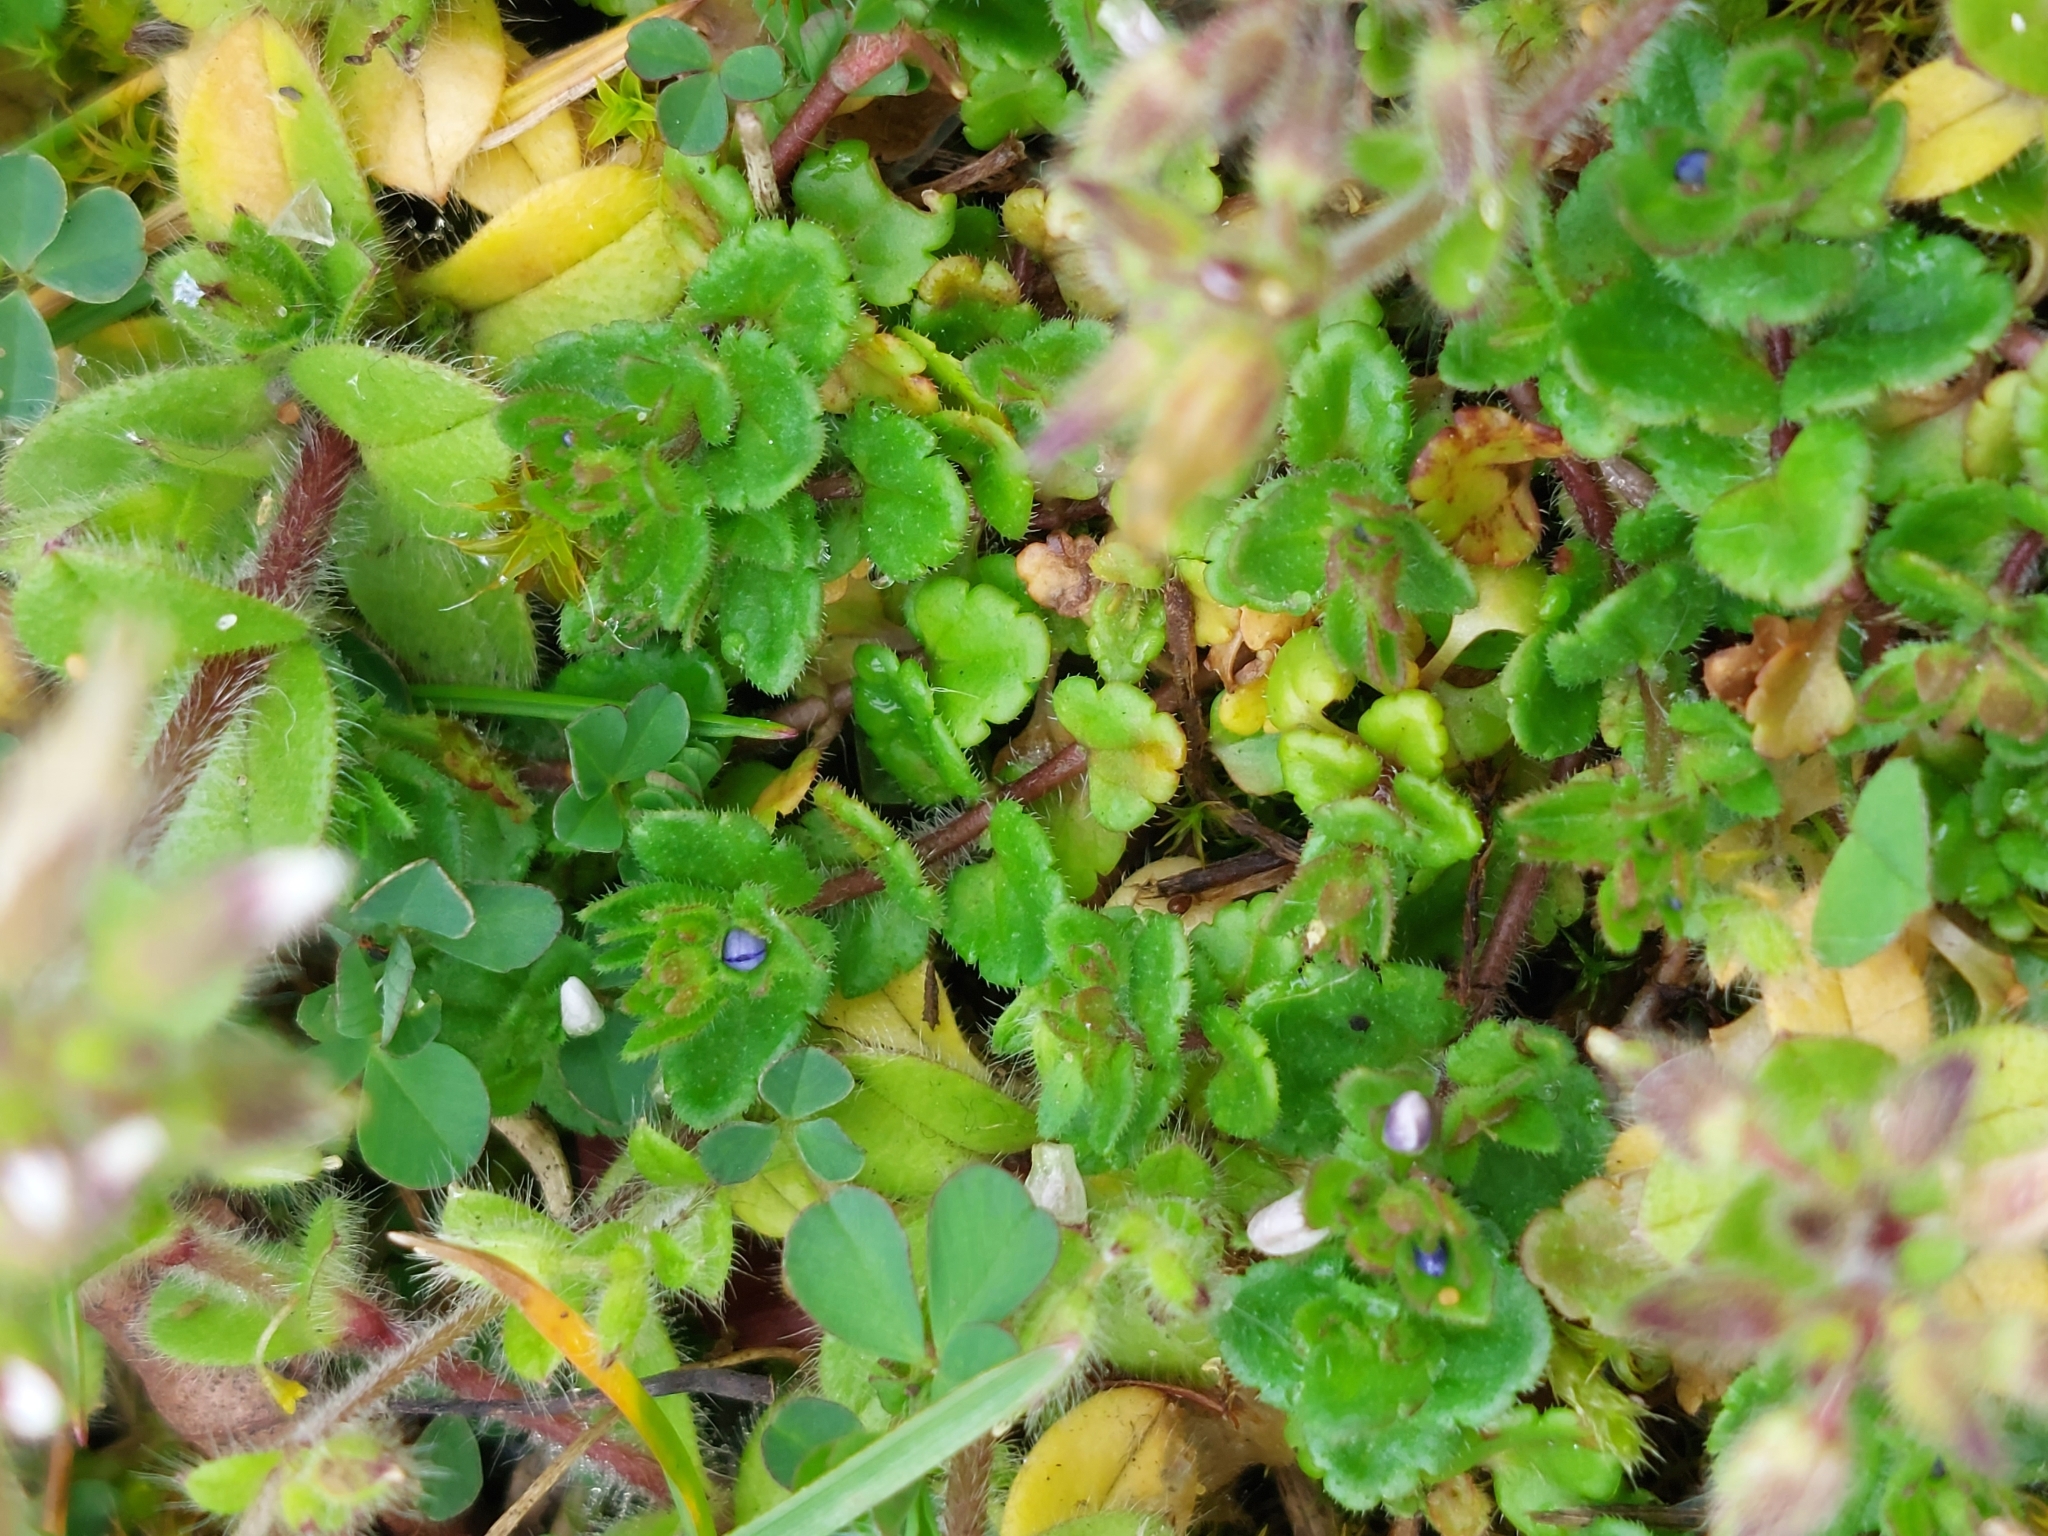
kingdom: Plantae
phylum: Tracheophyta
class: Magnoliopsida
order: Lamiales
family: Plantaginaceae
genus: Veronica
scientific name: Veronica arvensis
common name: Corn speedwell
